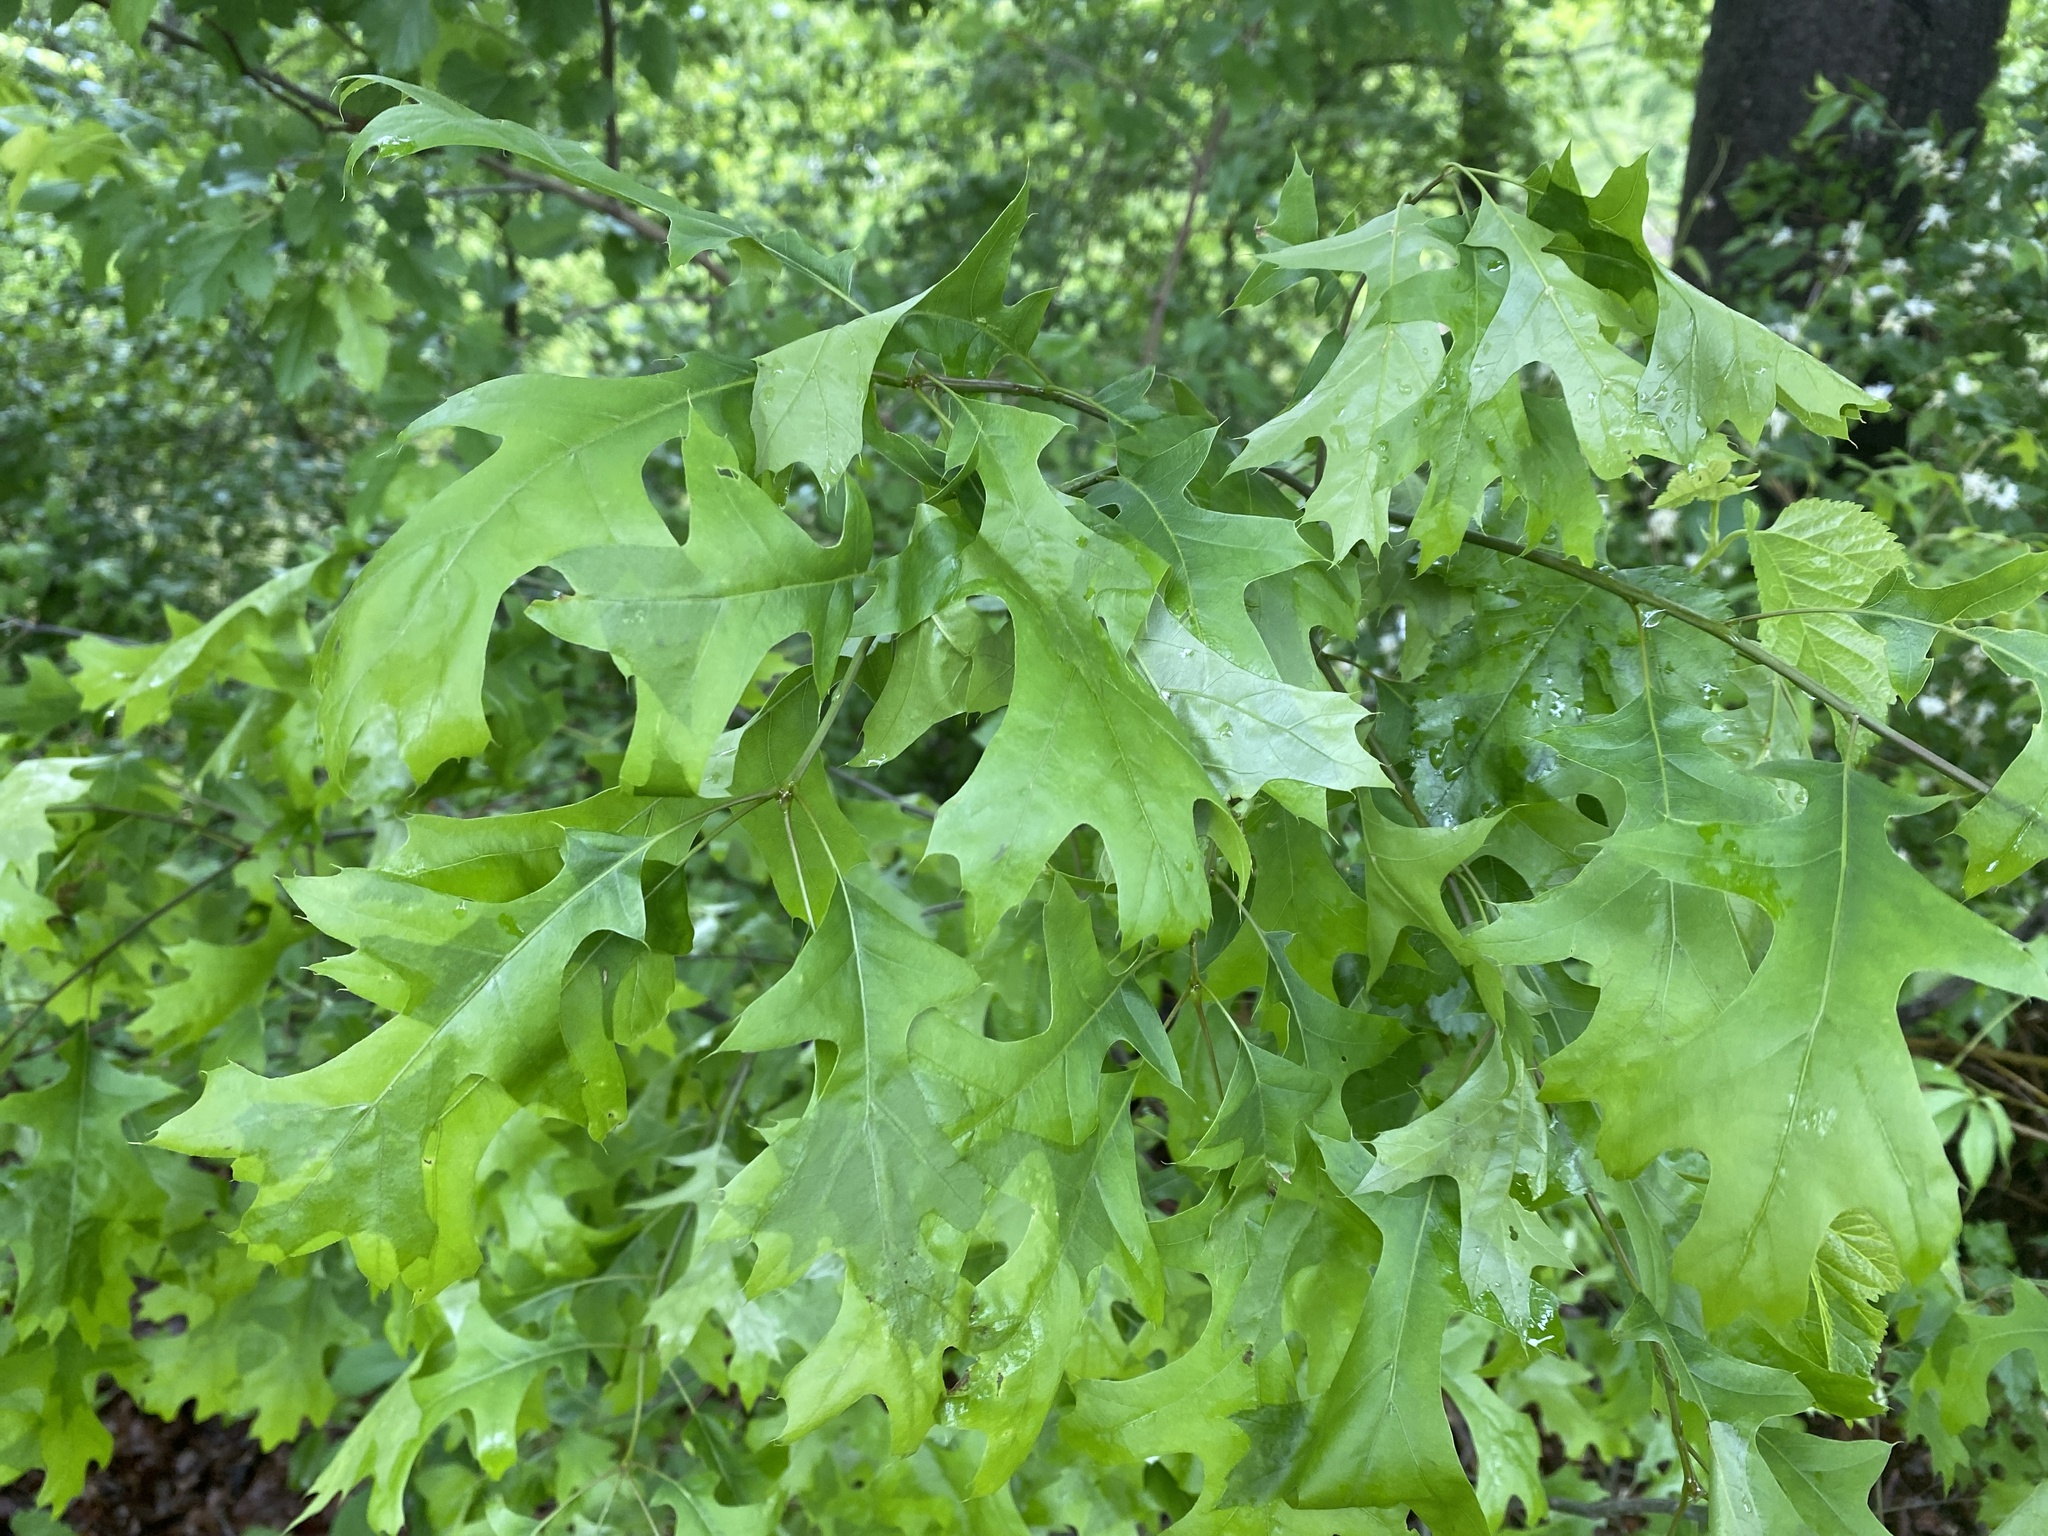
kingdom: Plantae
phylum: Tracheophyta
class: Magnoliopsida
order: Fagales
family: Fagaceae
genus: Quercus
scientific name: Quercus palustris
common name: Pin oak
